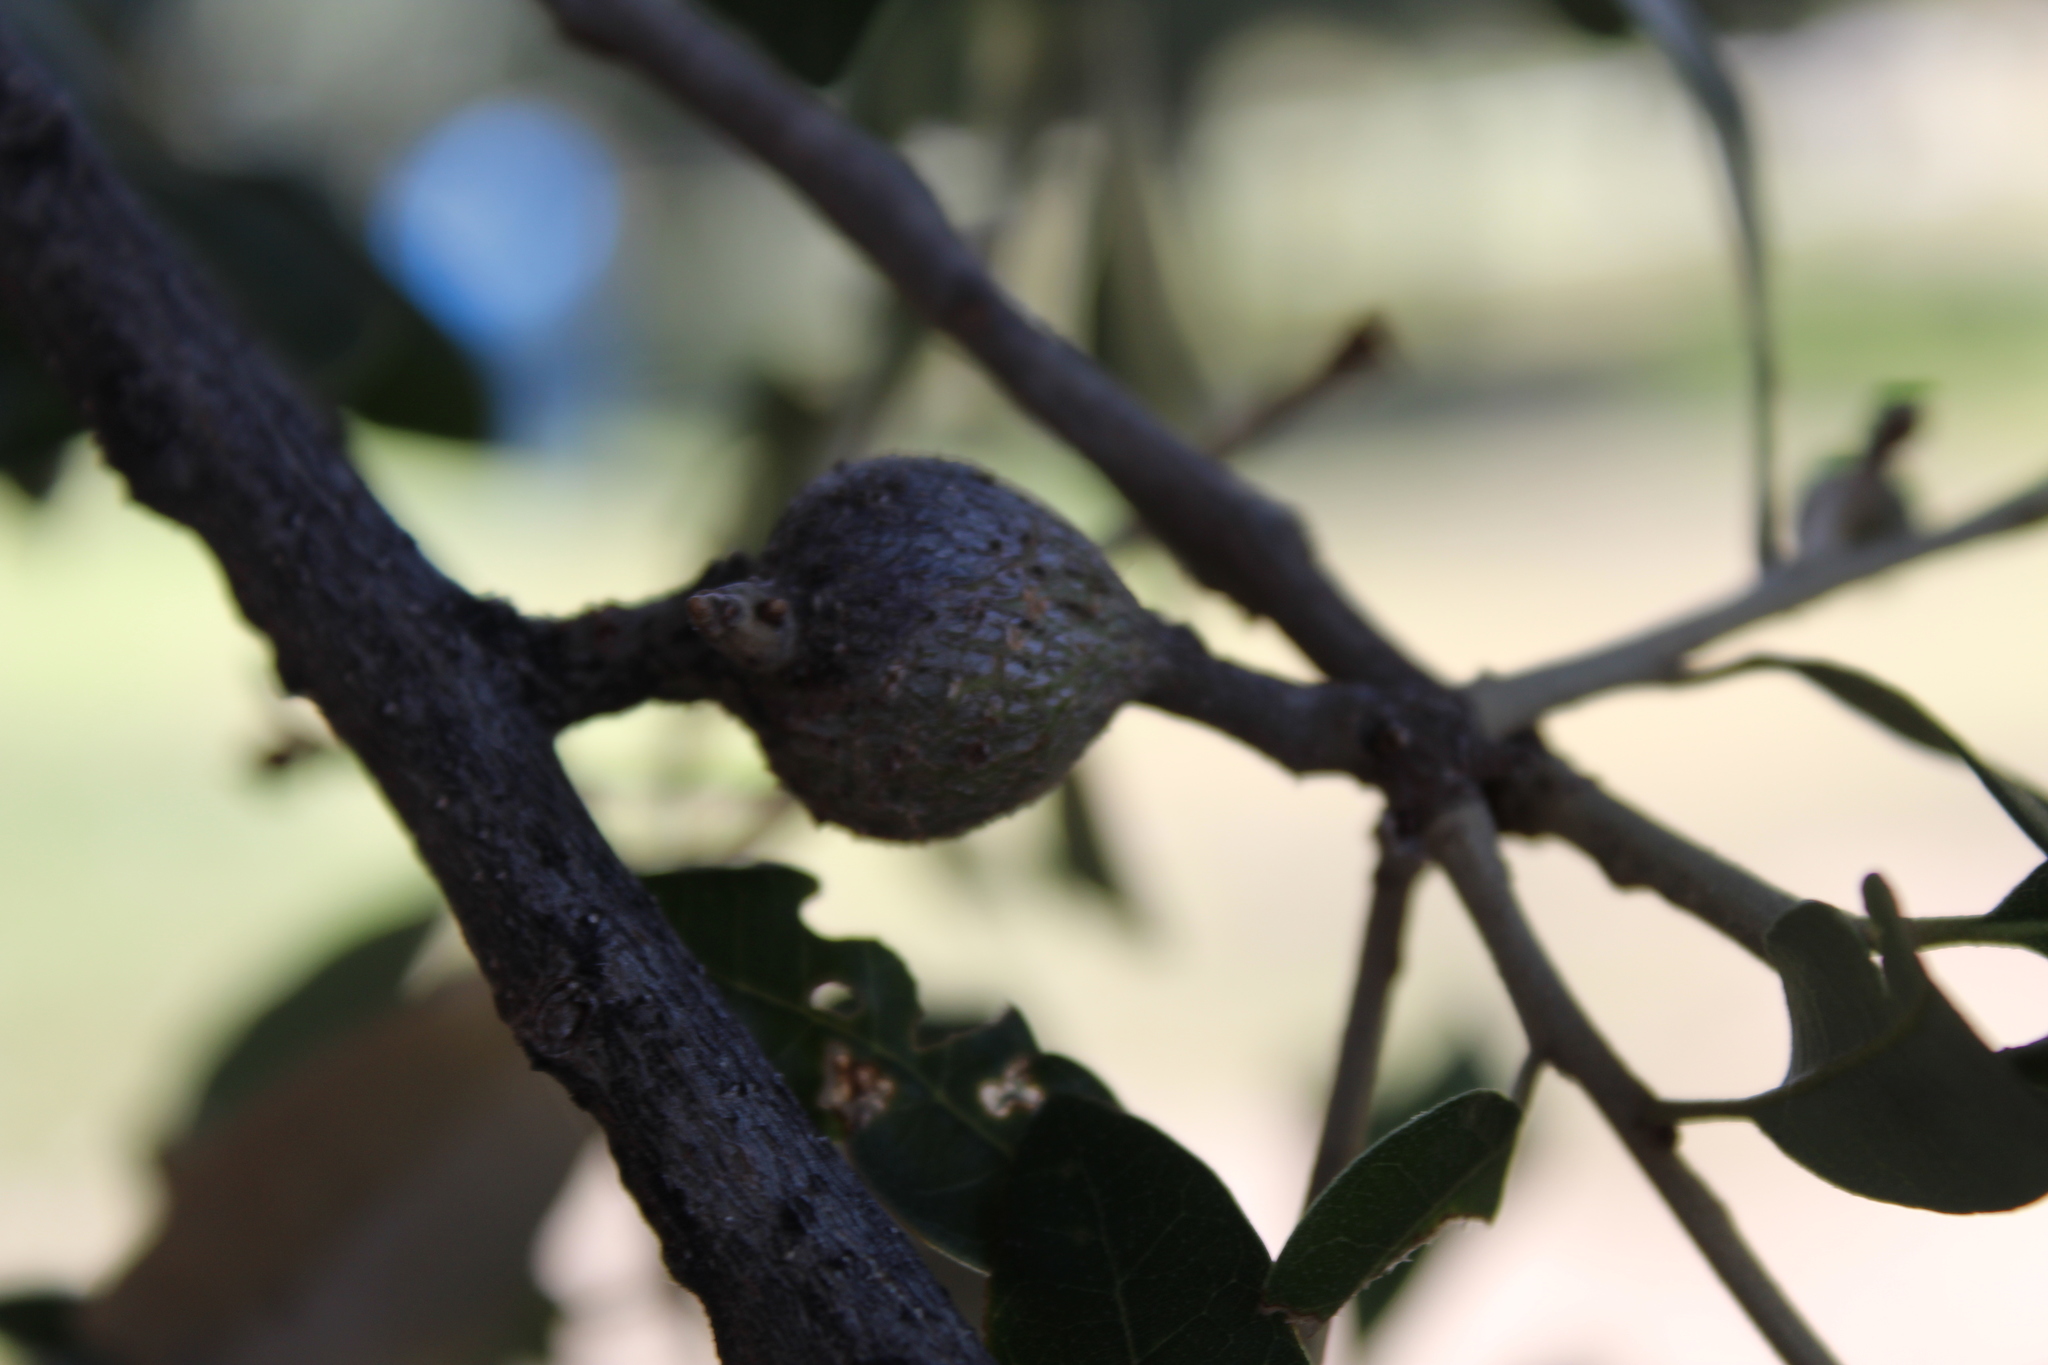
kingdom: Animalia
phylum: Arthropoda
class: Insecta
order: Hymenoptera
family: Cynipidae
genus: Callirhytis
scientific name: Callirhytis
